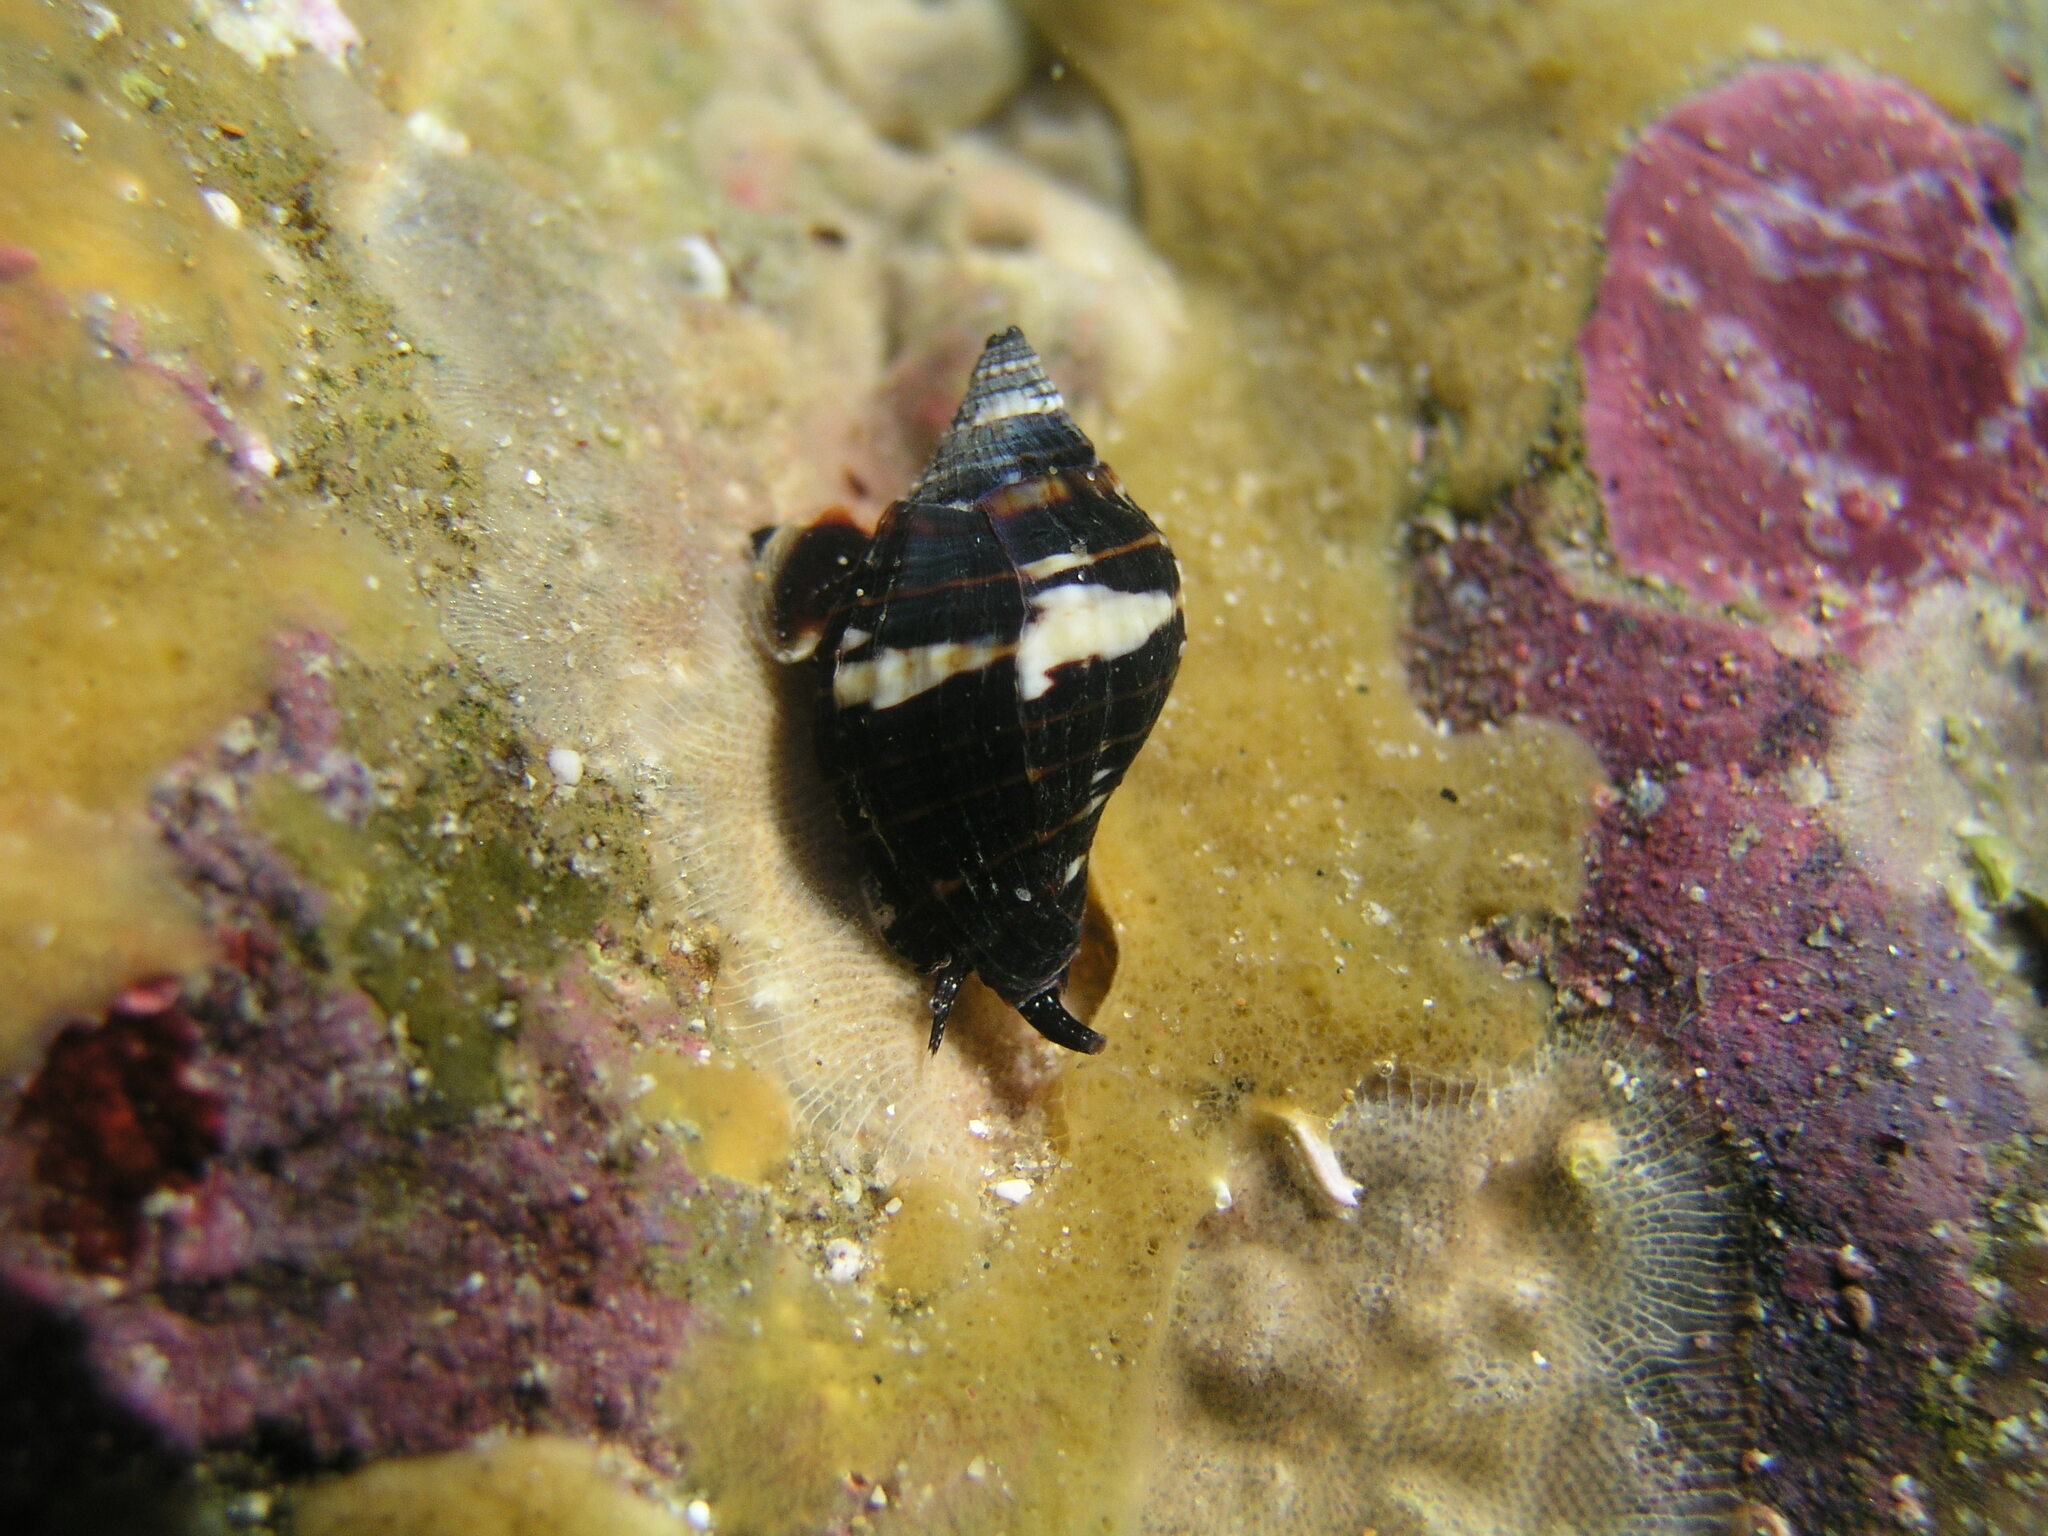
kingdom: Animalia
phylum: Mollusca
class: Gastropoda
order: Neogastropoda
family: Muricidae
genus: Nassa
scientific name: Nassa serta
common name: Sertum rock shell
